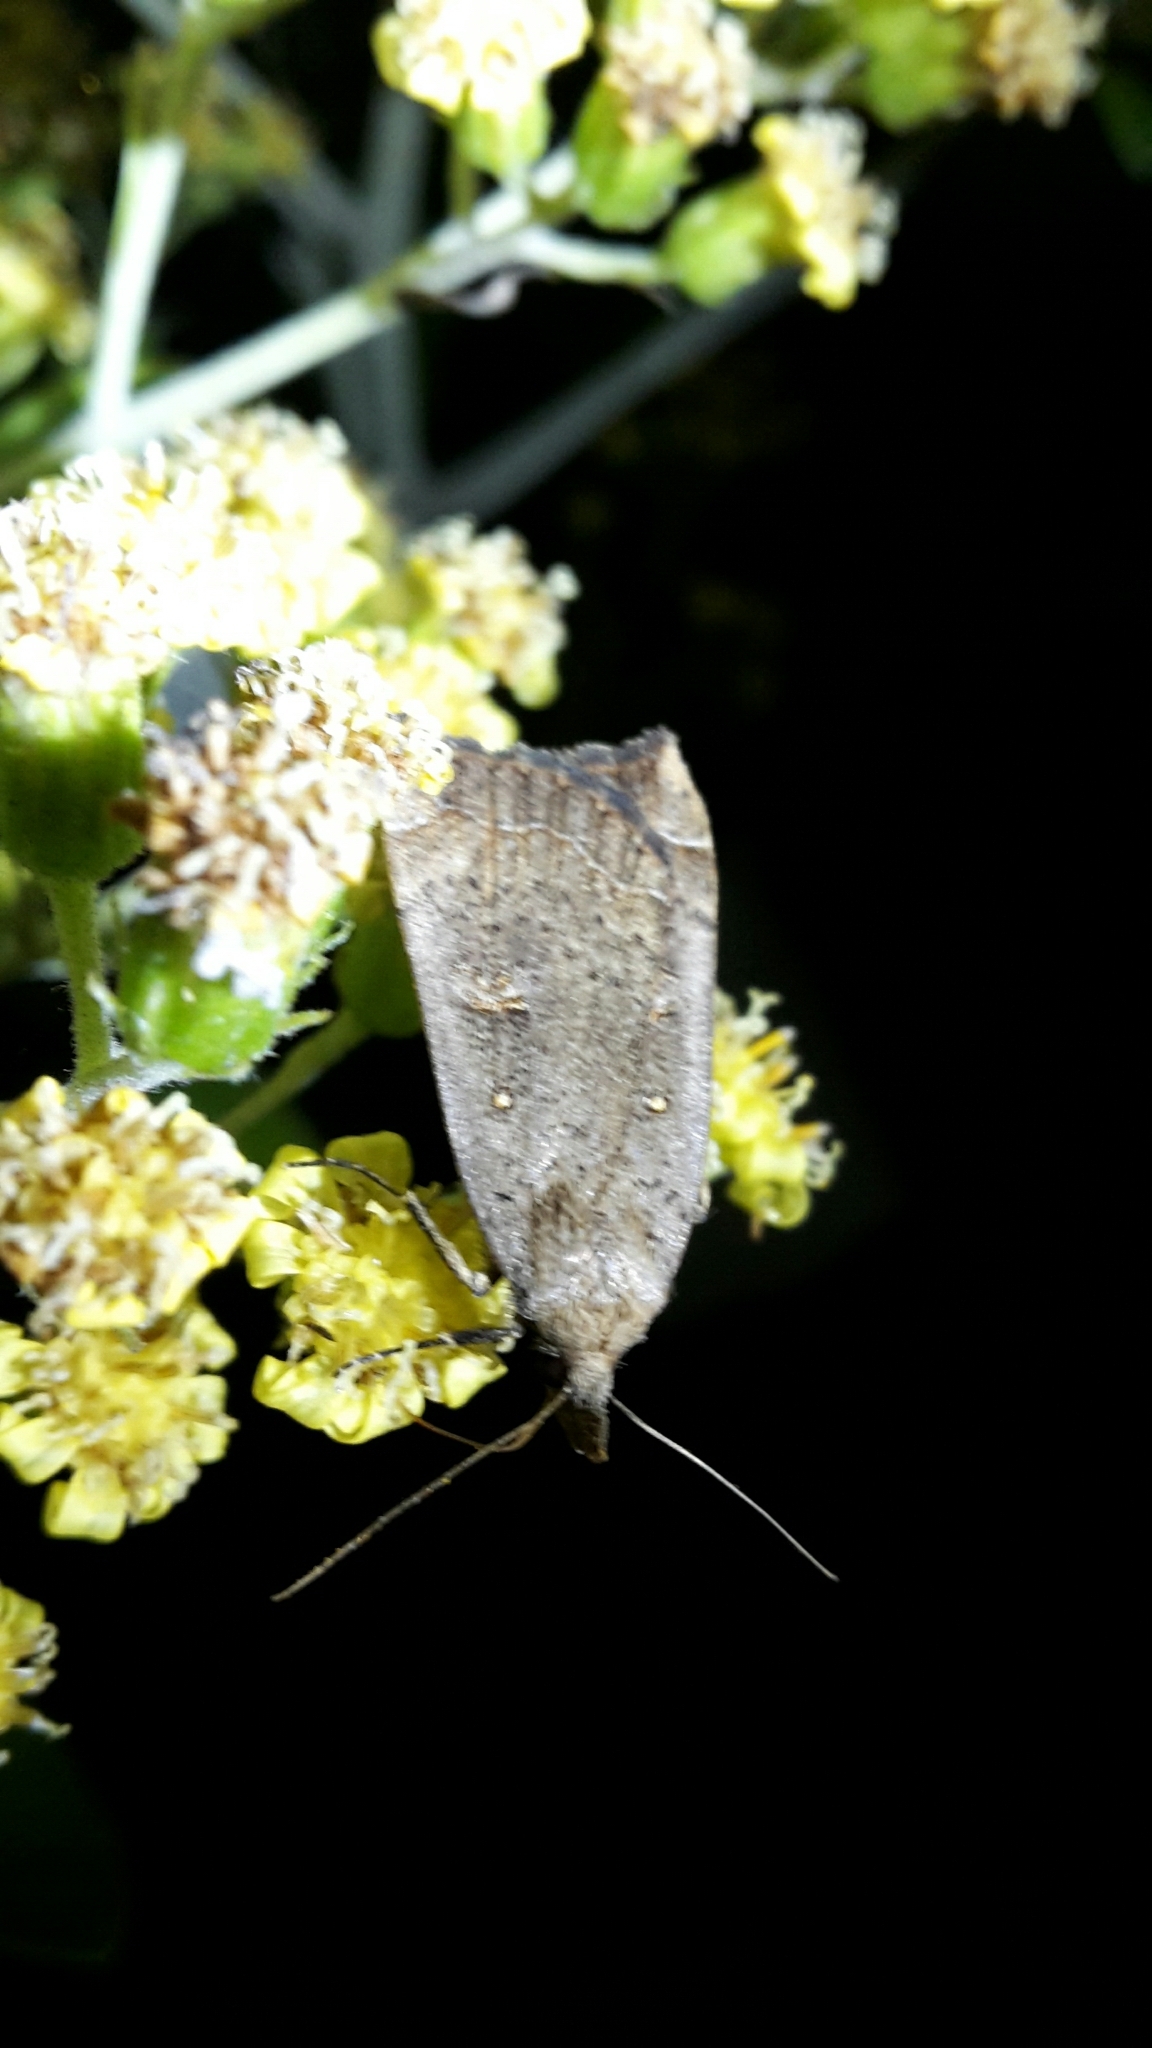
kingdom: Animalia
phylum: Arthropoda
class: Insecta
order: Lepidoptera
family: Erebidae
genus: Rhapsa
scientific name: Rhapsa scotosialis
